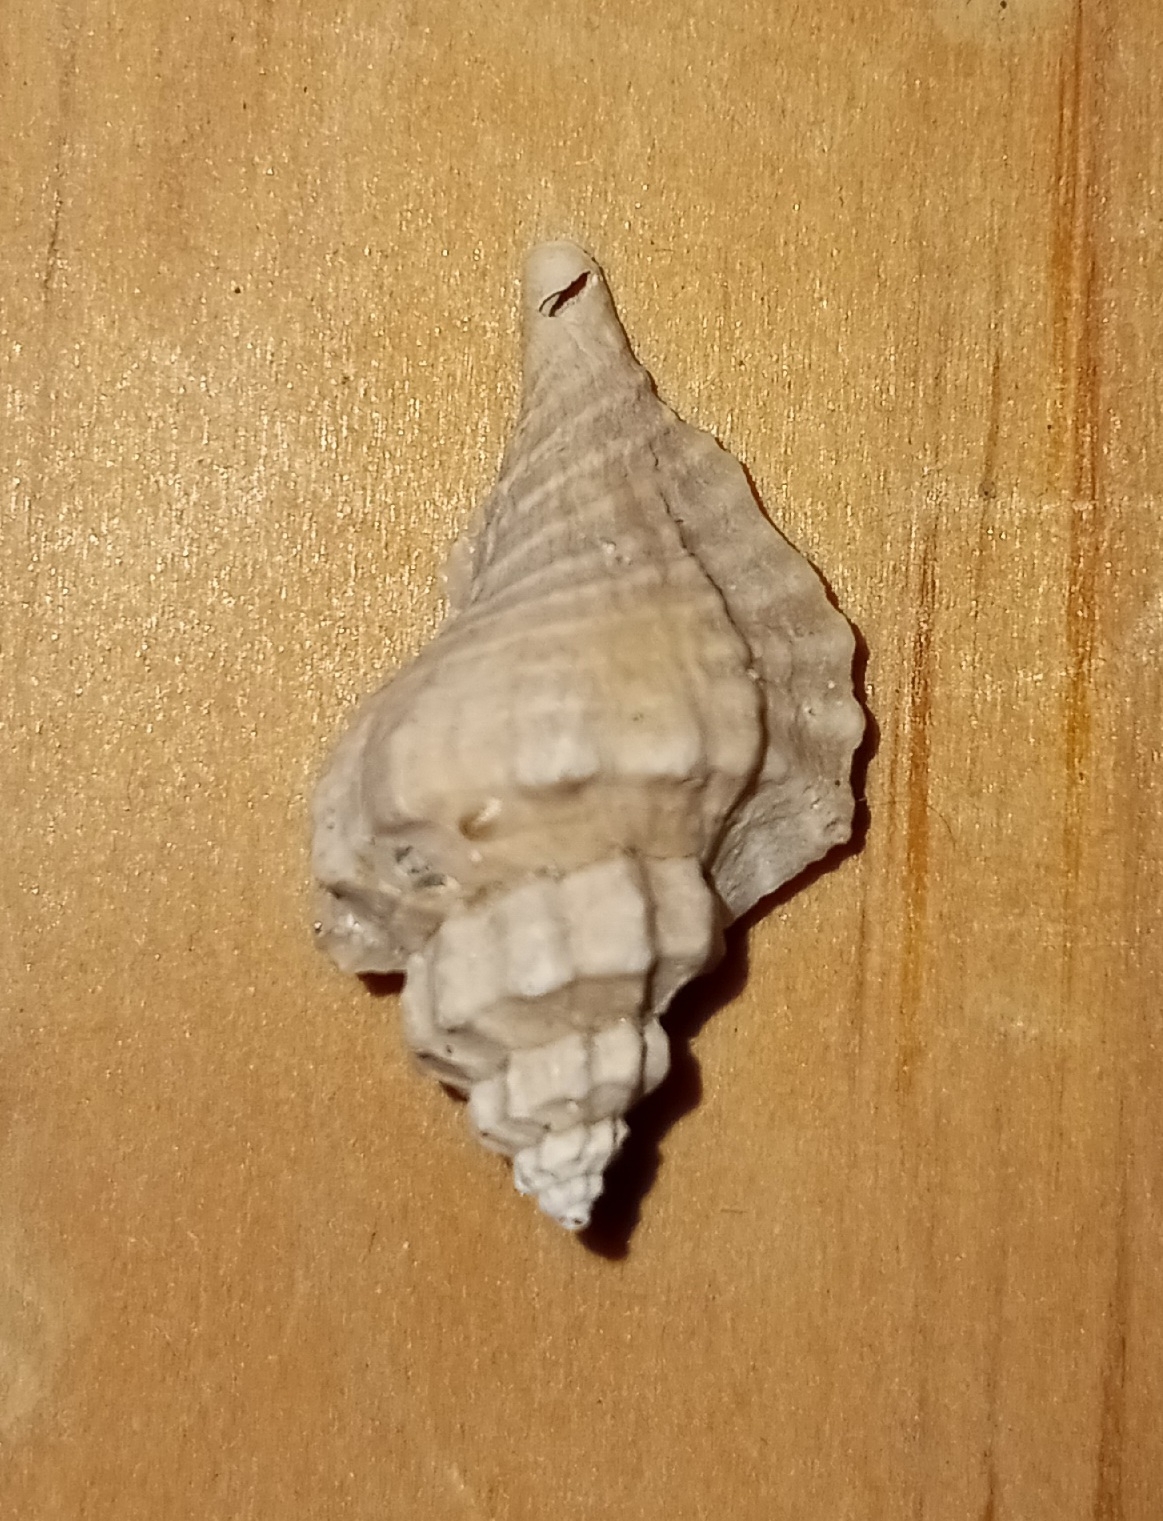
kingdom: Animalia
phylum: Mollusca
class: Gastropoda
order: Neogastropoda
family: Muricidae
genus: Eupleura
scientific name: Eupleura caudata
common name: Thick-lip drill
